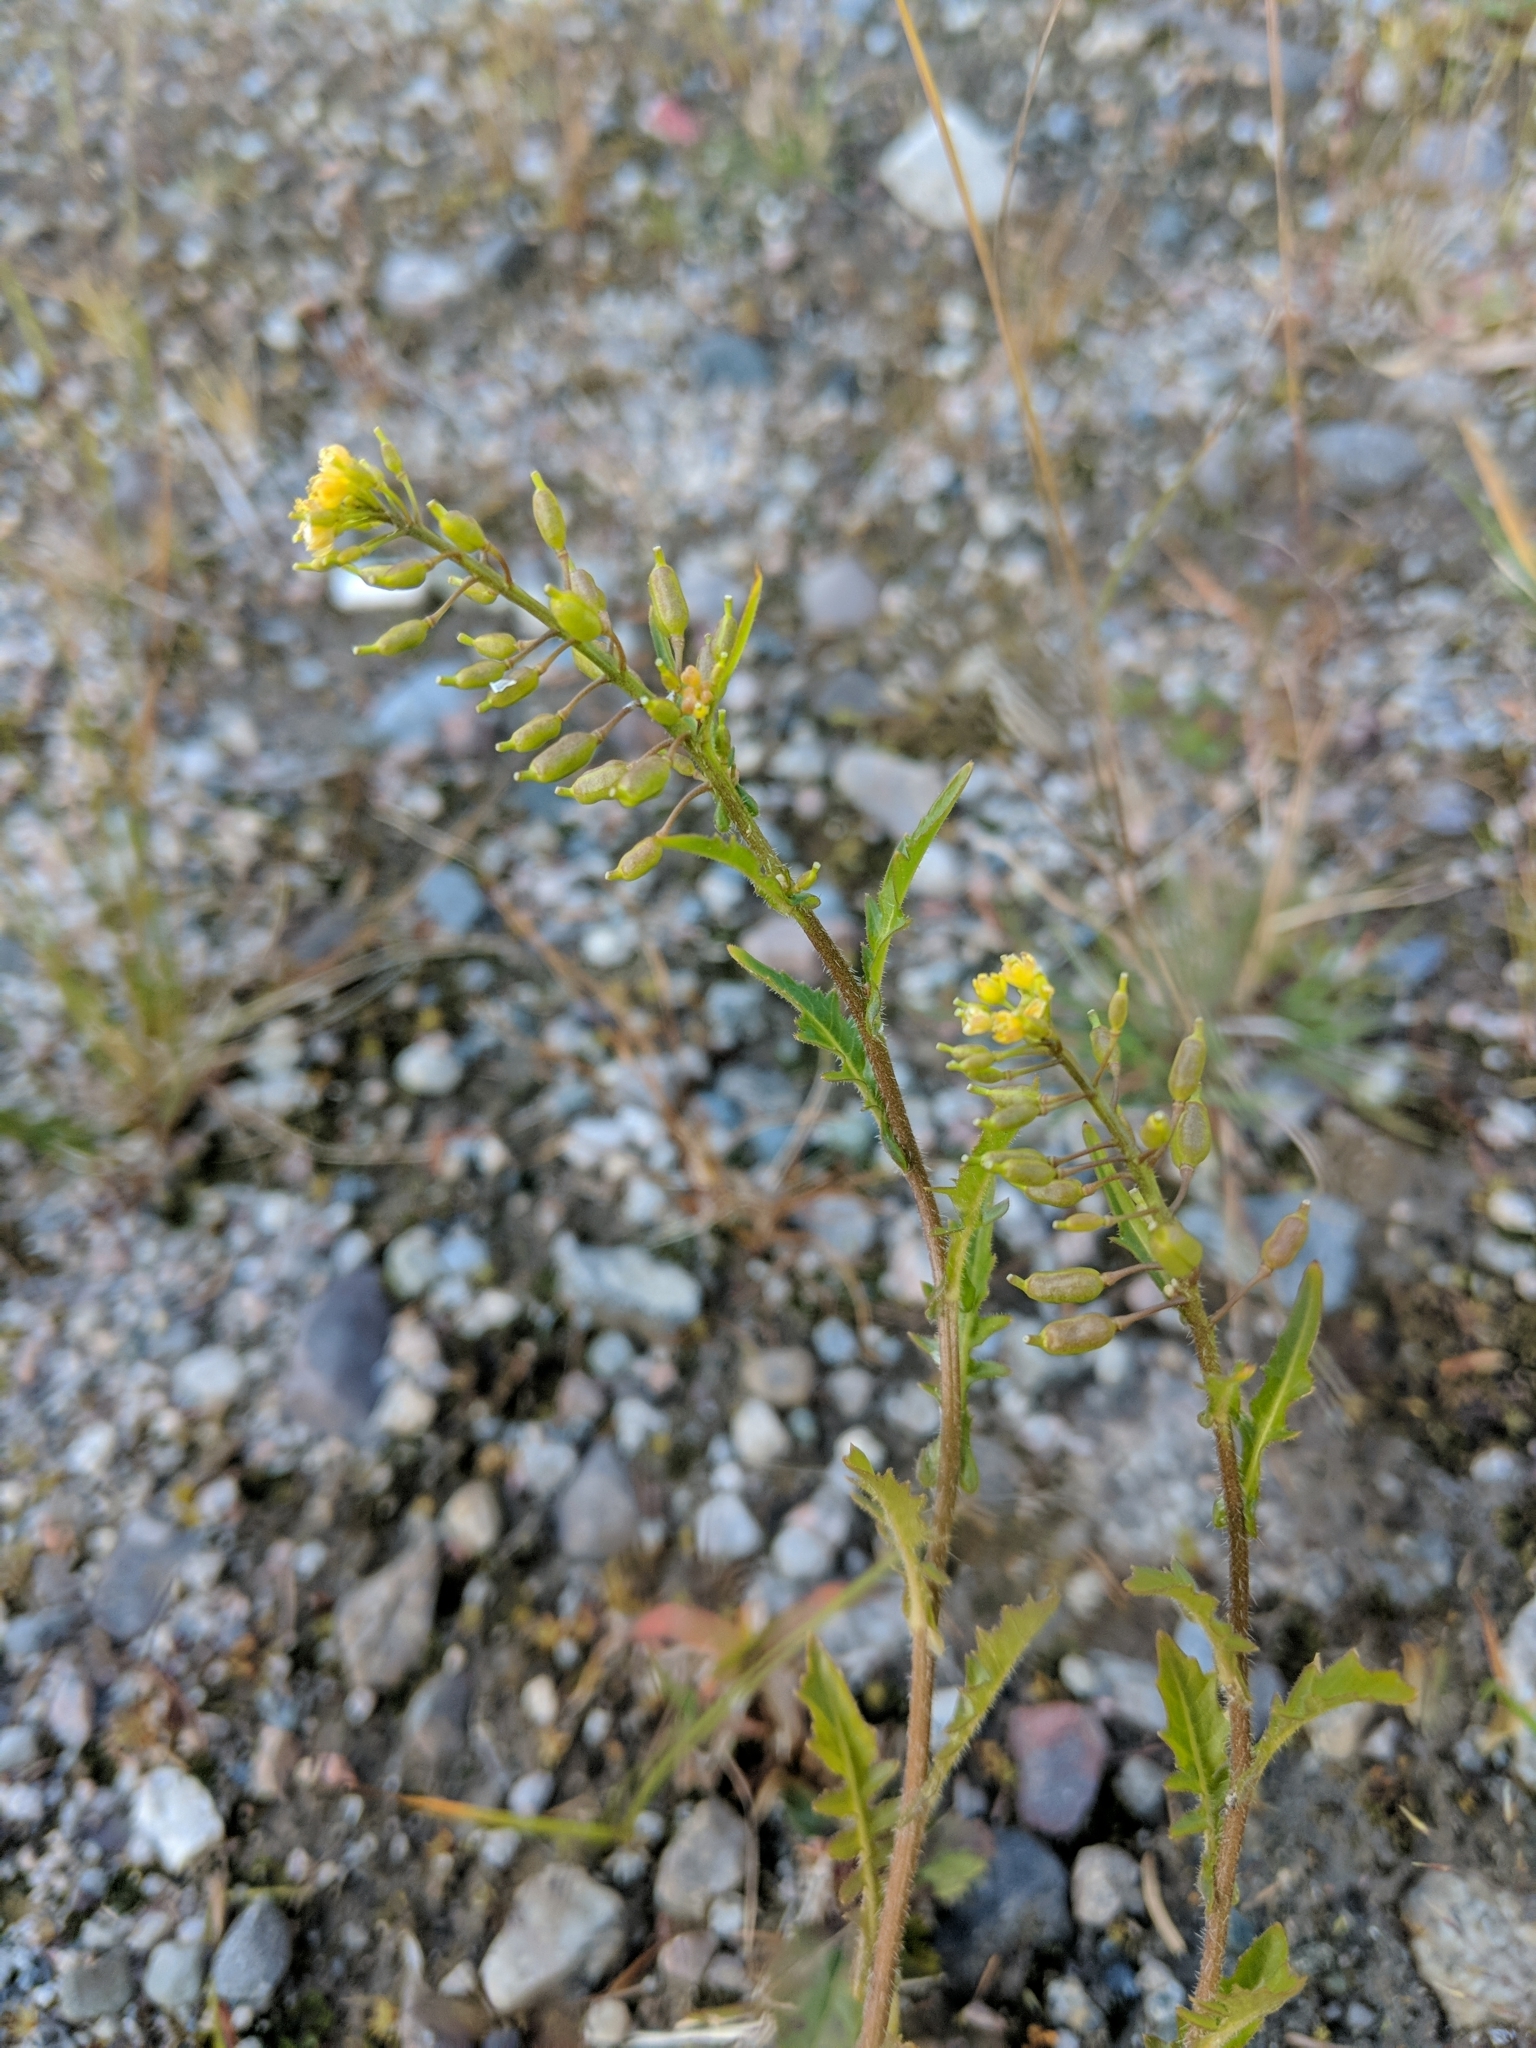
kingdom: Plantae
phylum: Tracheophyta
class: Magnoliopsida
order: Brassicales
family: Brassicaceae
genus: Rorippa
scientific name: Rorippa palustris
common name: Marsh yellow-cress
